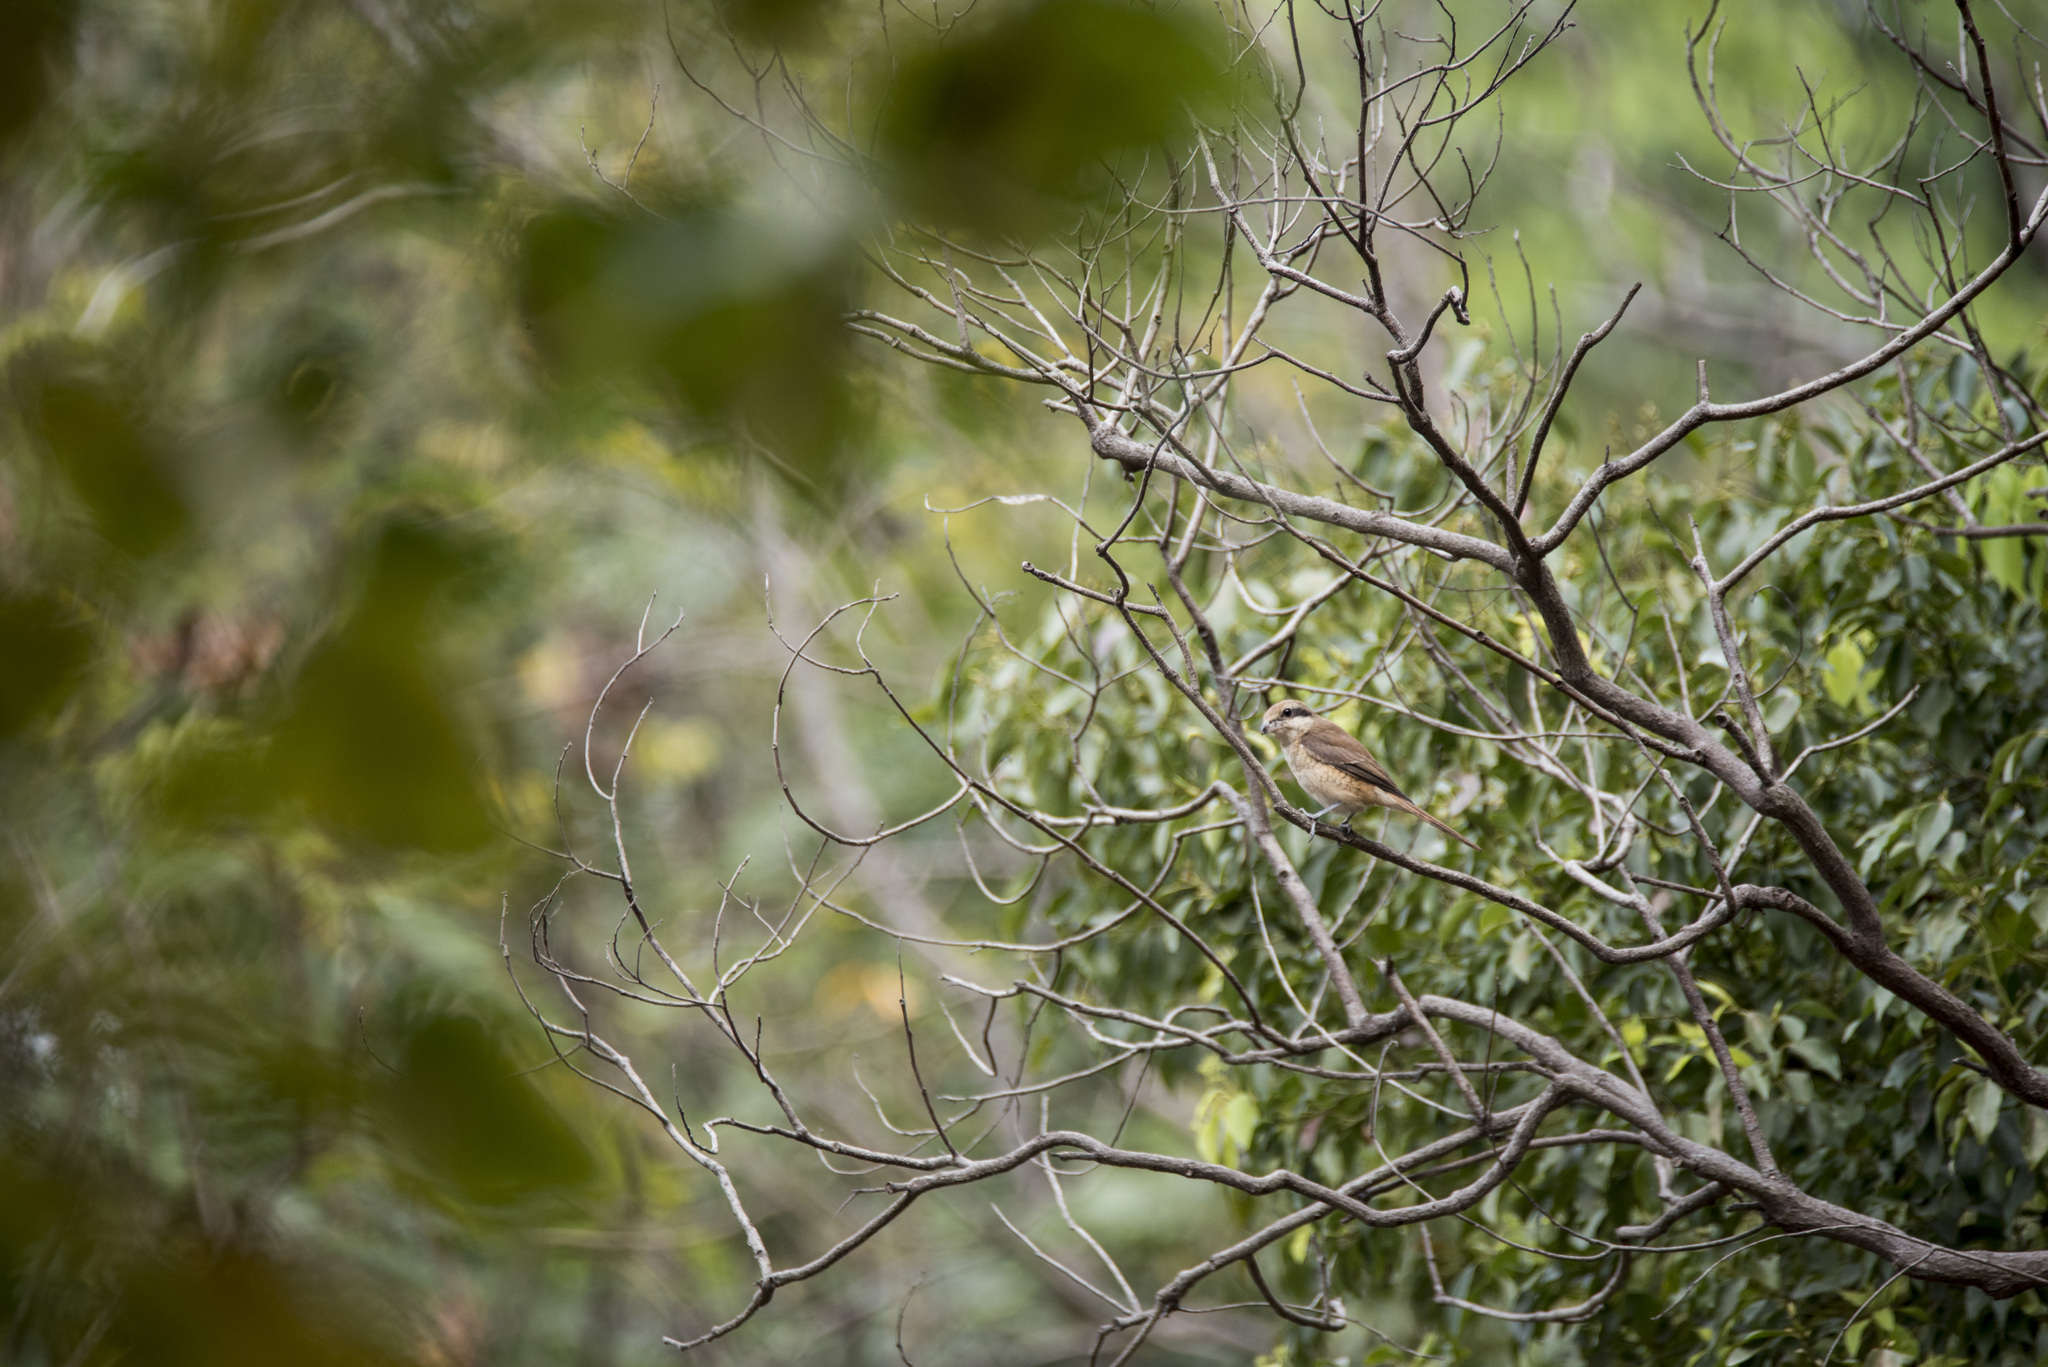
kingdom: Animalia
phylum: Chordata
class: Aves
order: Passeriformes
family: Laniidae
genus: Lanius
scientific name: Lanius cristatus
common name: Brown shrike
